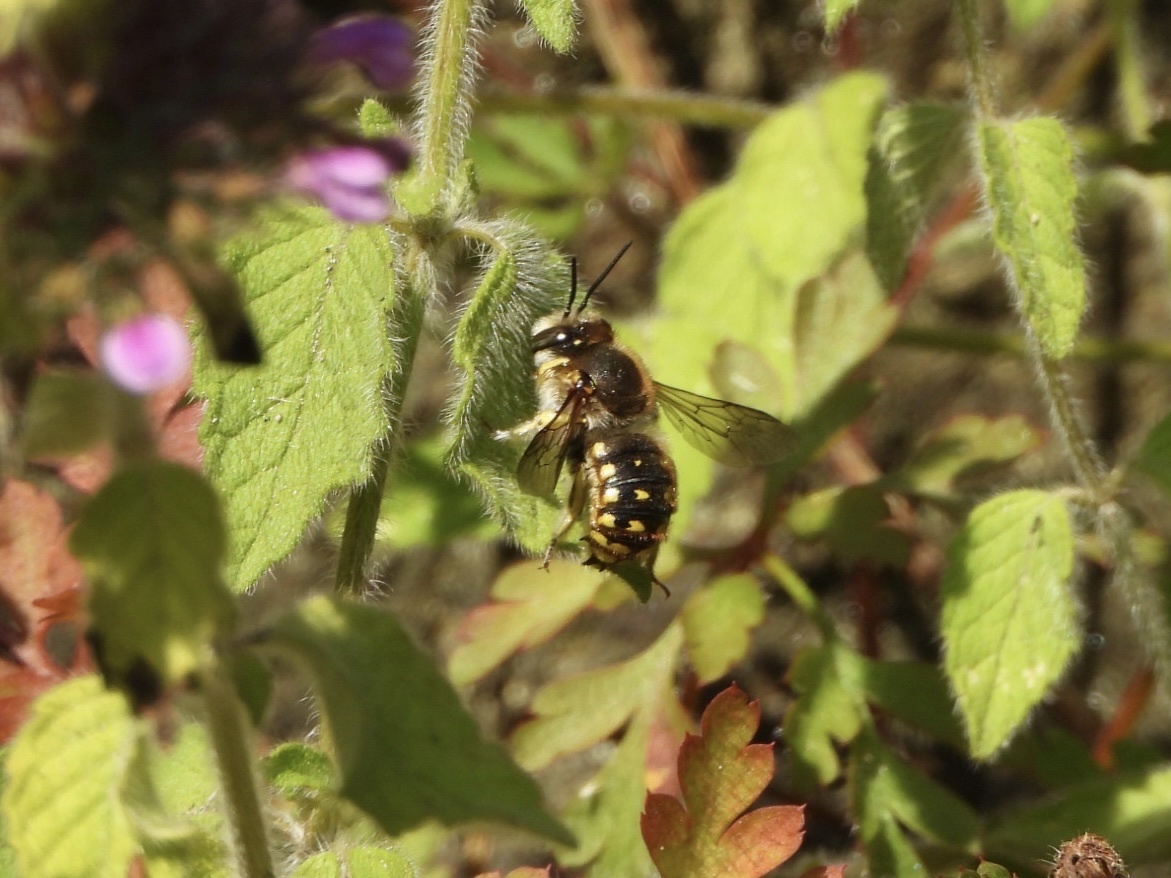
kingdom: Animalia
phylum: Arthropoda
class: Insecta
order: Hymenoptera
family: Megachilidae
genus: Anthidium
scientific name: Anthidium manicatum
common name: Wool carder bee
